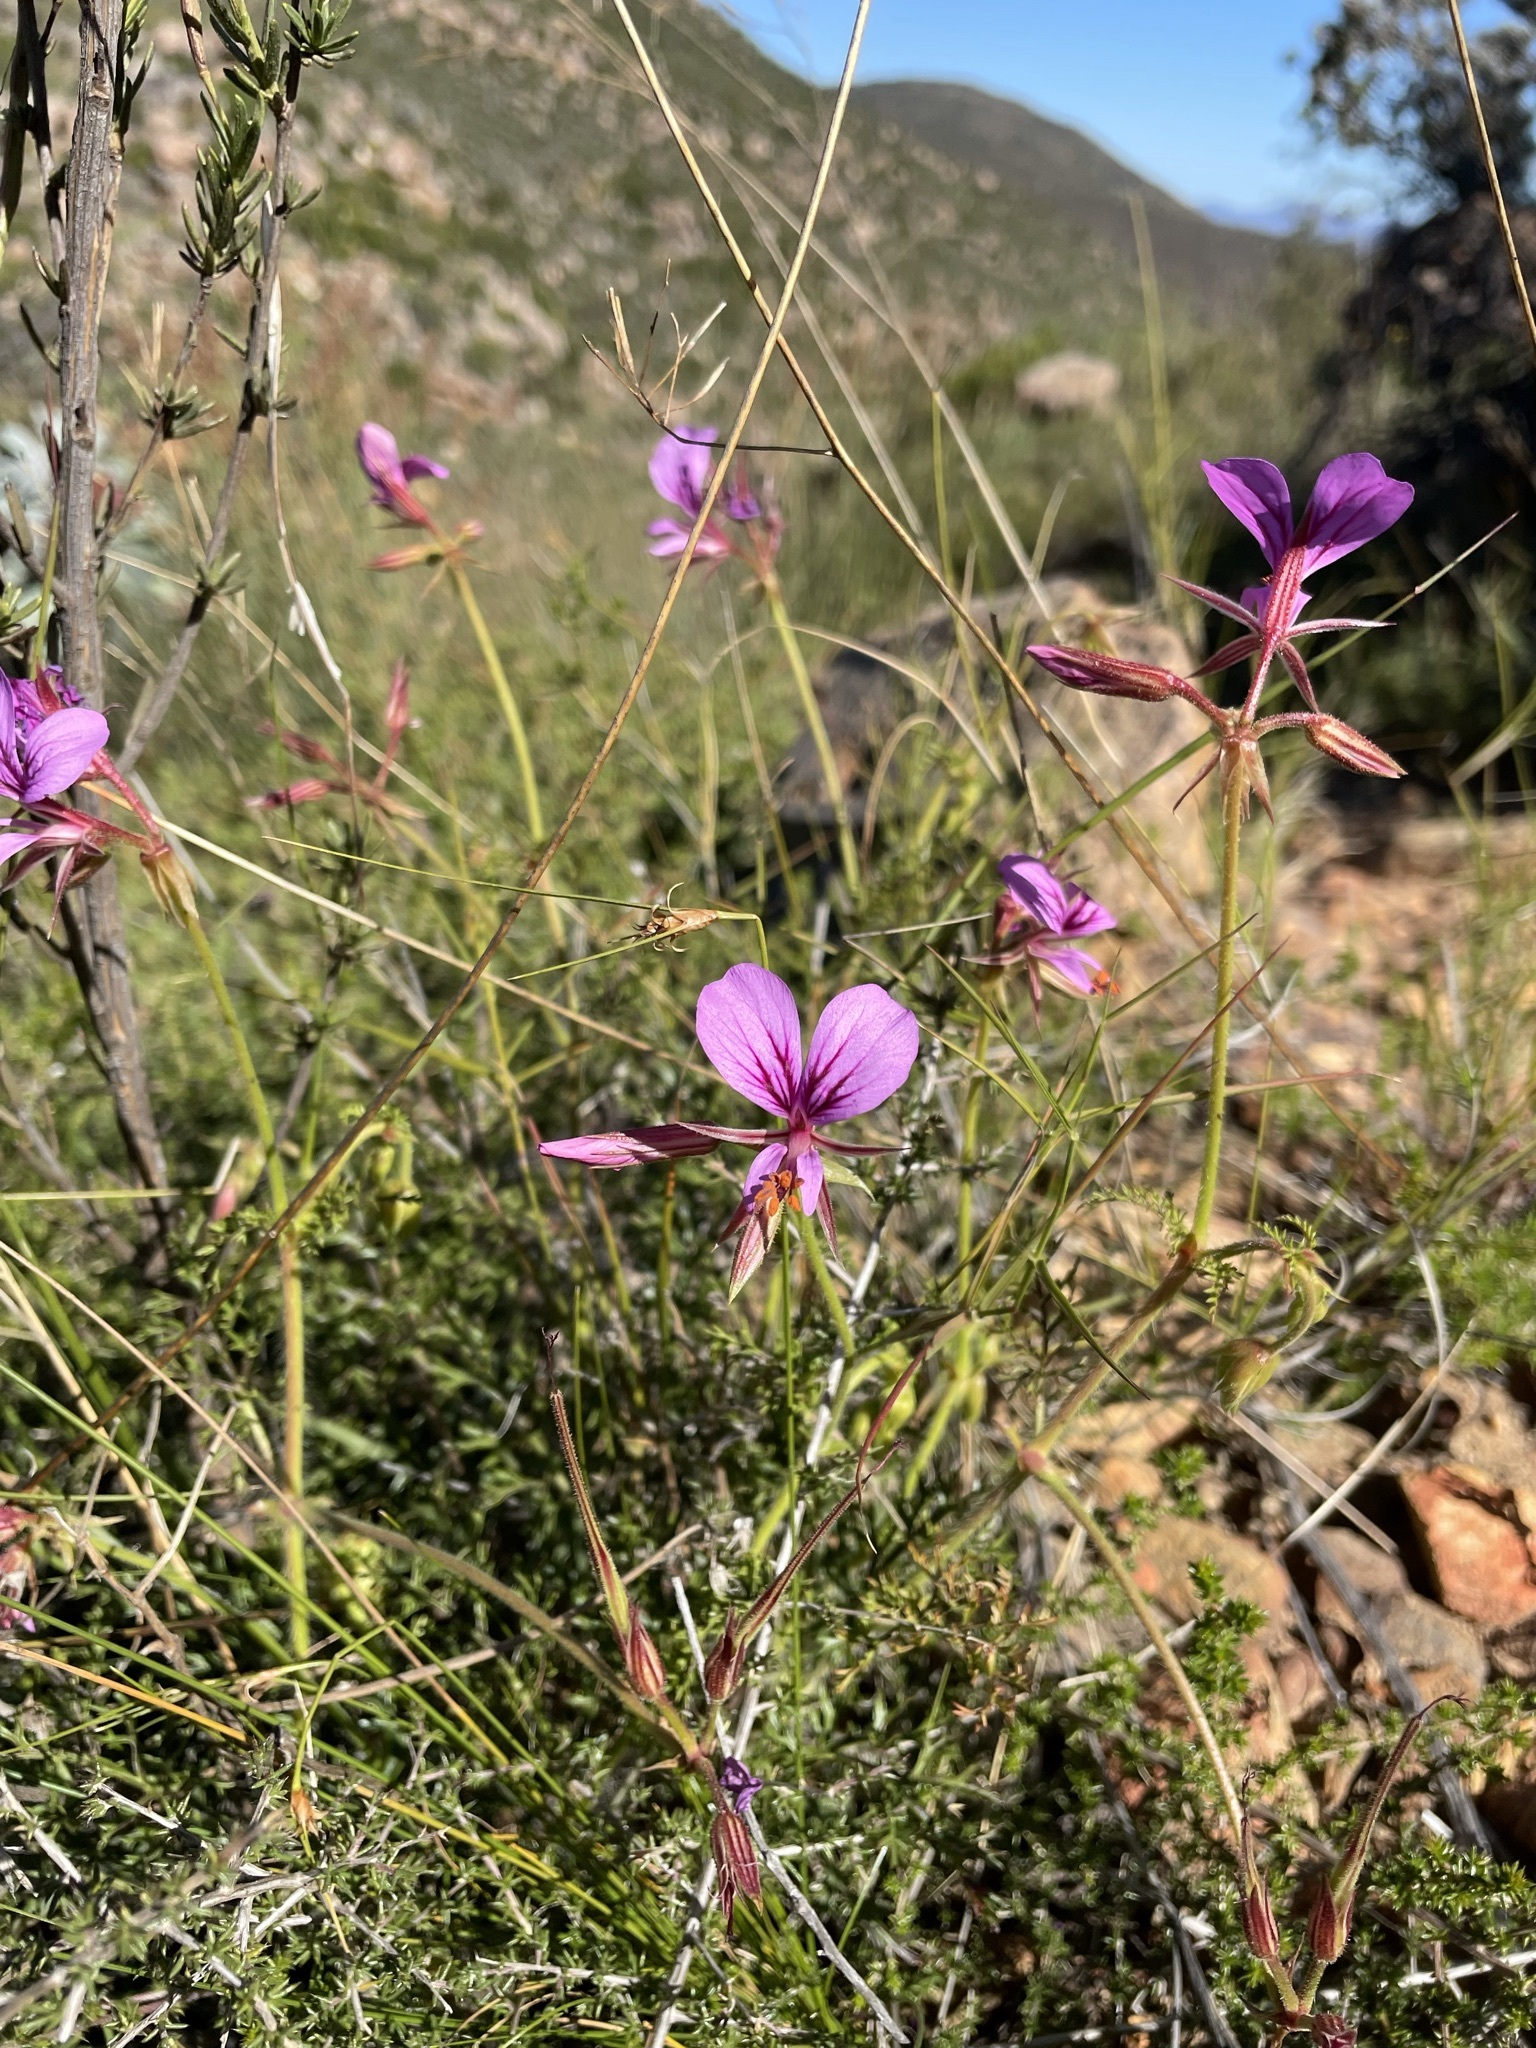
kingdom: Plantae
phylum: Tracheophyta
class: Magnoliopsida
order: Geraniales
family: Geraniaceae
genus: Pelargonium
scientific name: Pelargonium myrrhifolium
